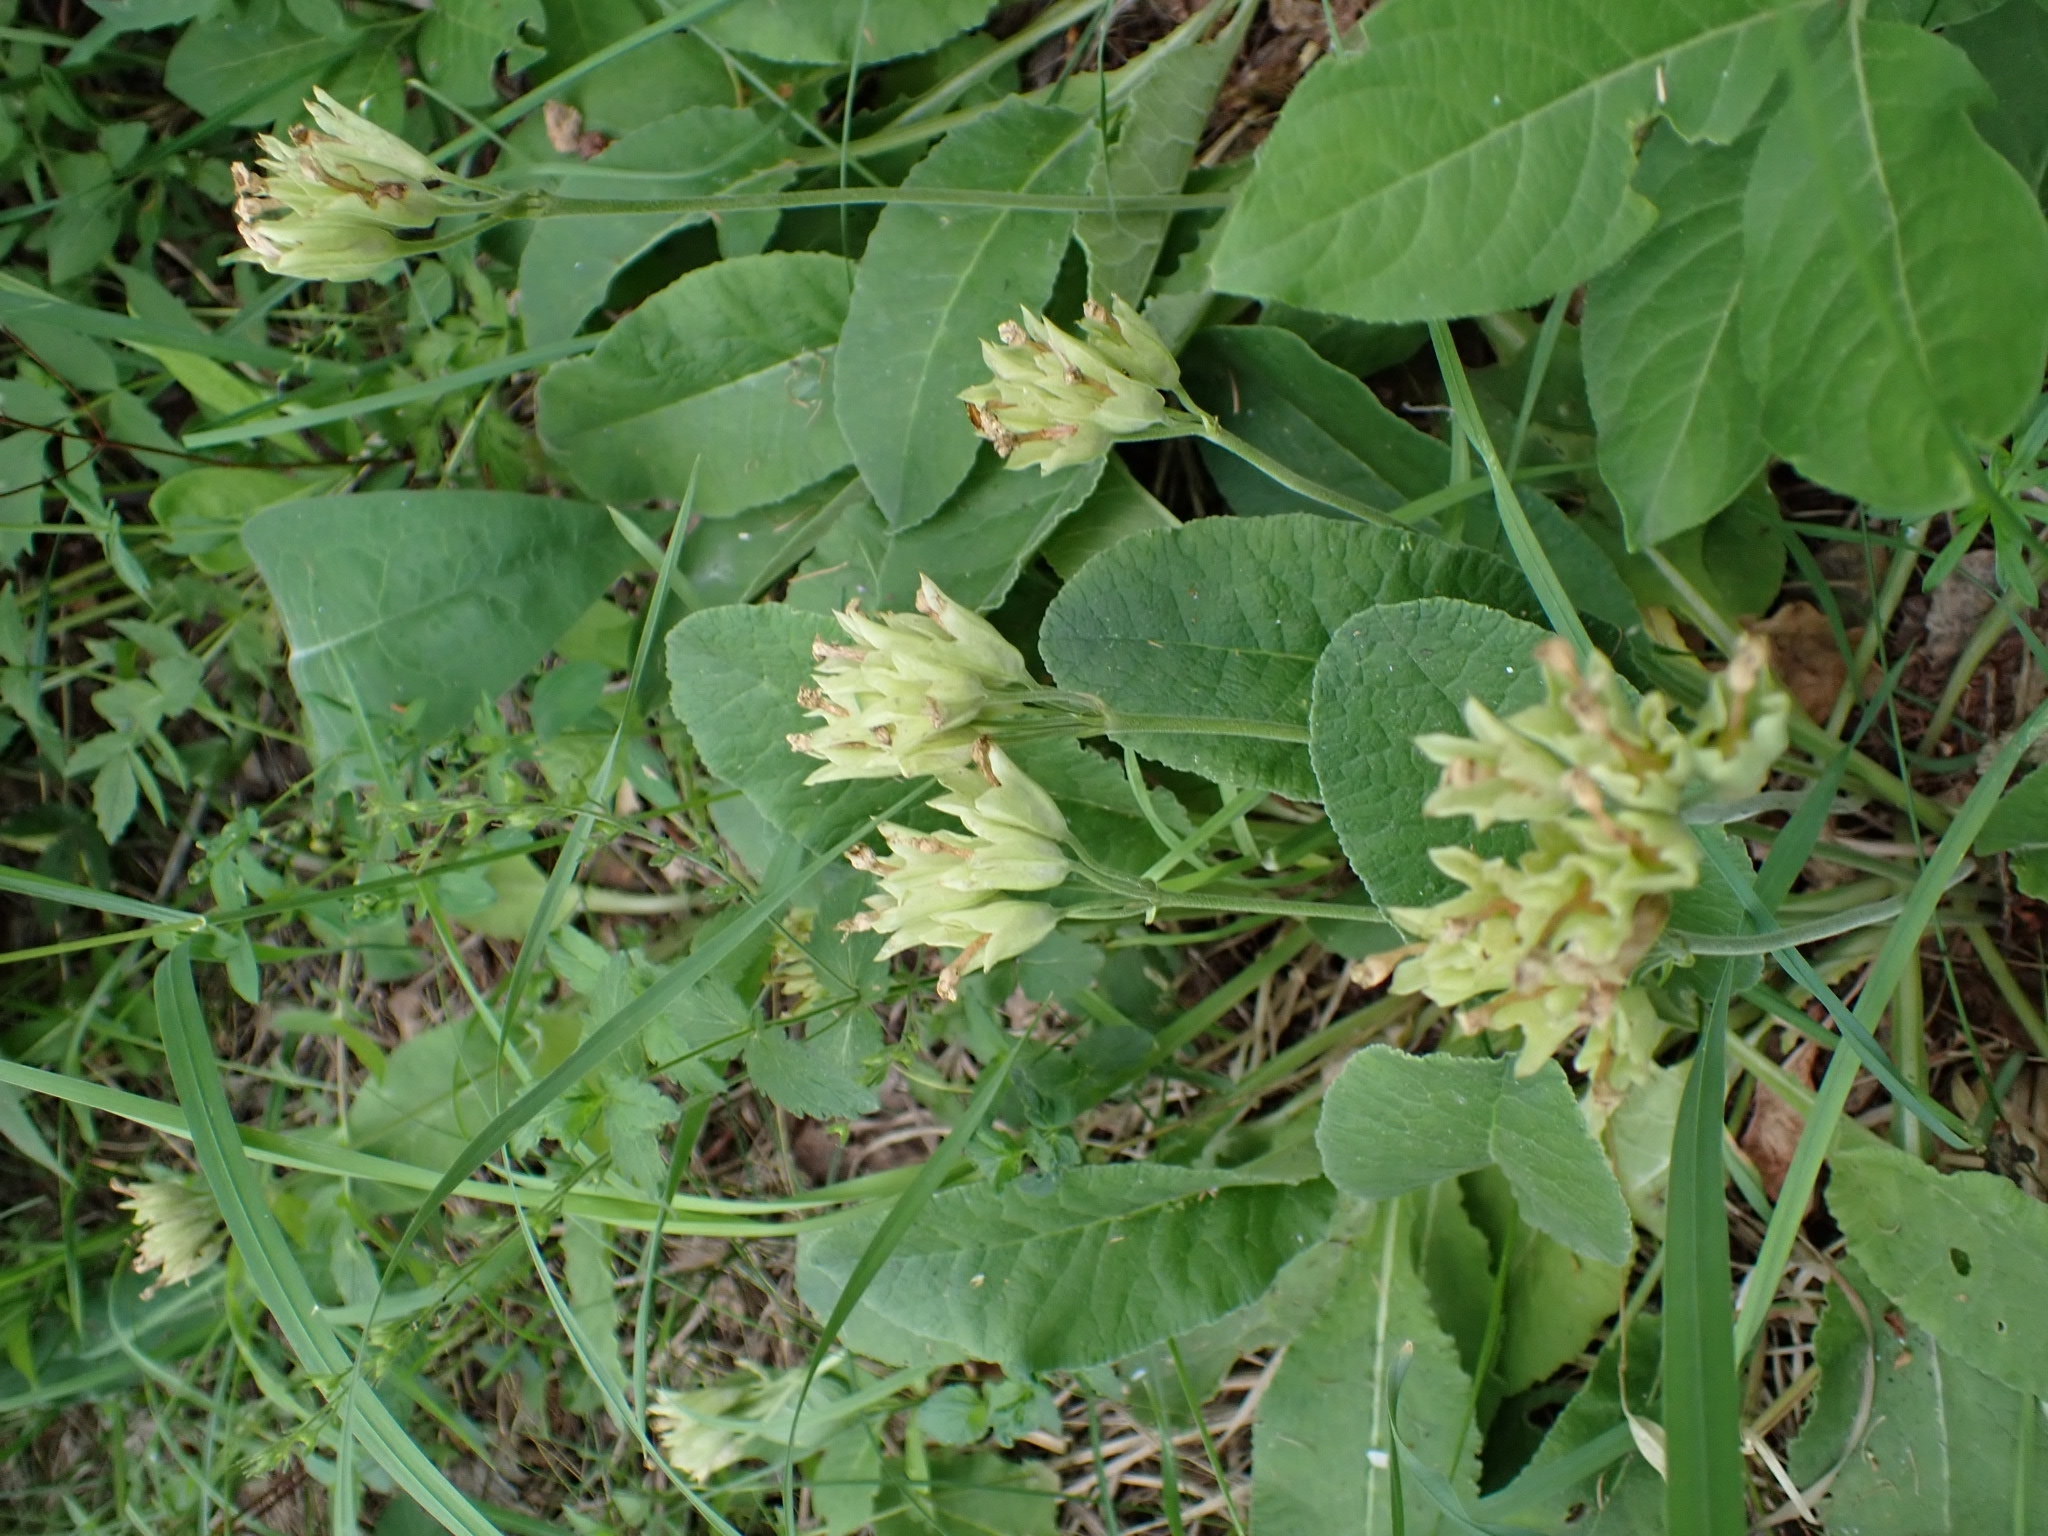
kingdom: Plantae
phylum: Tracheophyta
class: Magnoliopsida
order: Ericales
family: Primulaceae
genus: Primula
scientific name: Primula veris
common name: Cowslip
